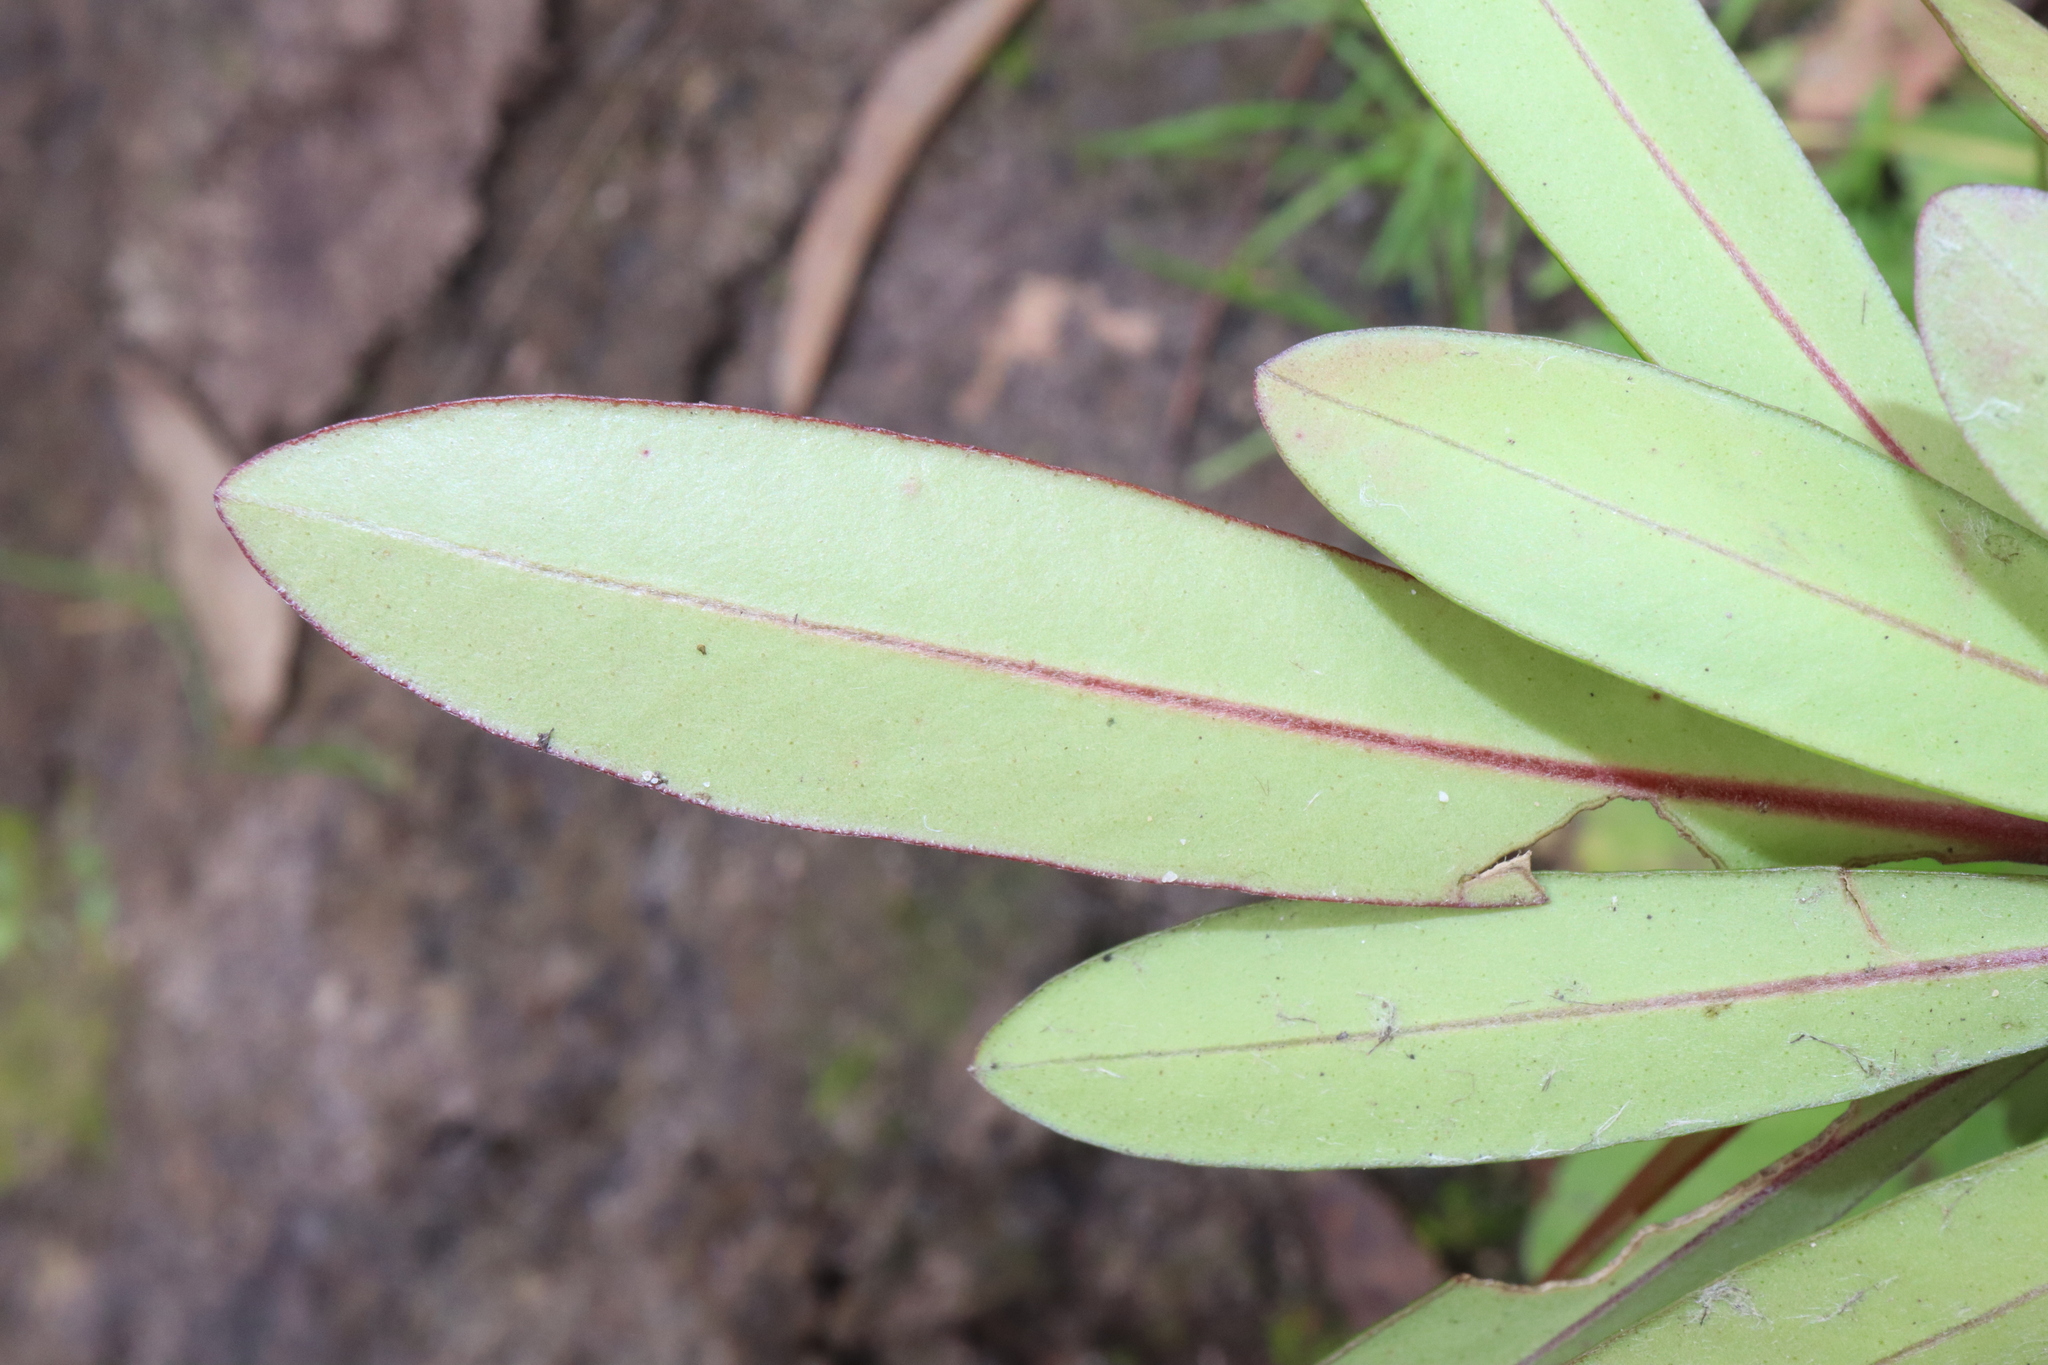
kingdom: Plantae
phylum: Tracheophyta
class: Magnoliopsida
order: Myrtales
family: Myrtaceae
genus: Tristaniopsis
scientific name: Tristaniopsis laurina
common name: Water-gum
